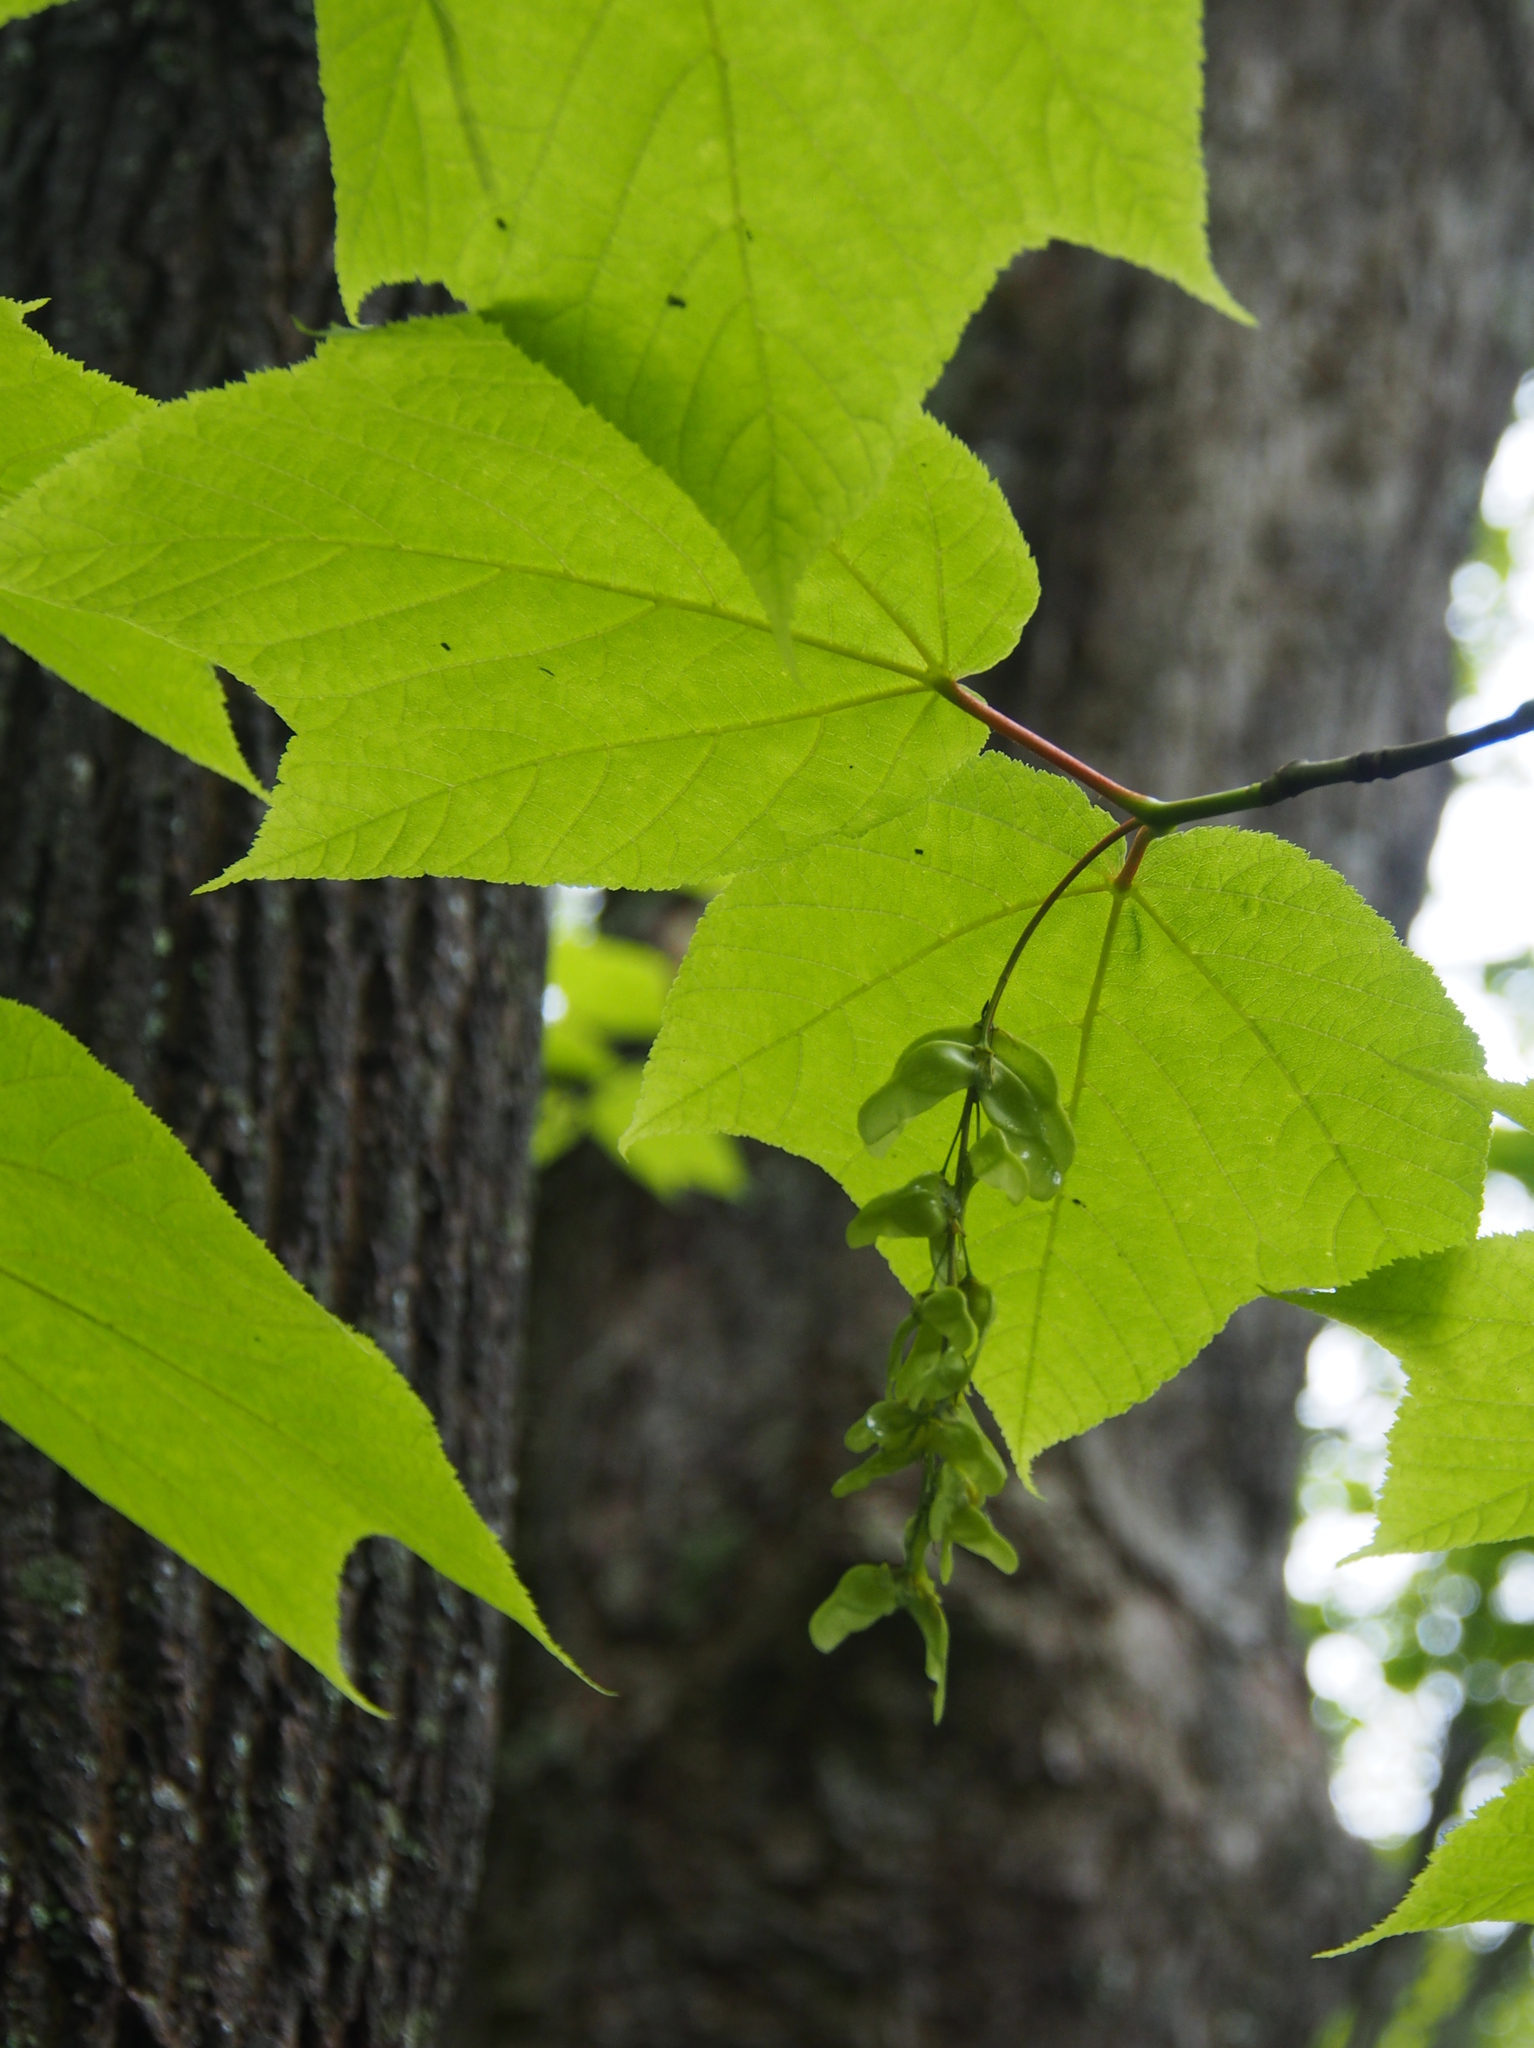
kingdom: Plantae
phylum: Tracheophyta
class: Magnoliopsida
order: Sapindales
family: Sapindaceae
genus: Acer
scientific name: Acer pensylvanicum
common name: Moosewood
